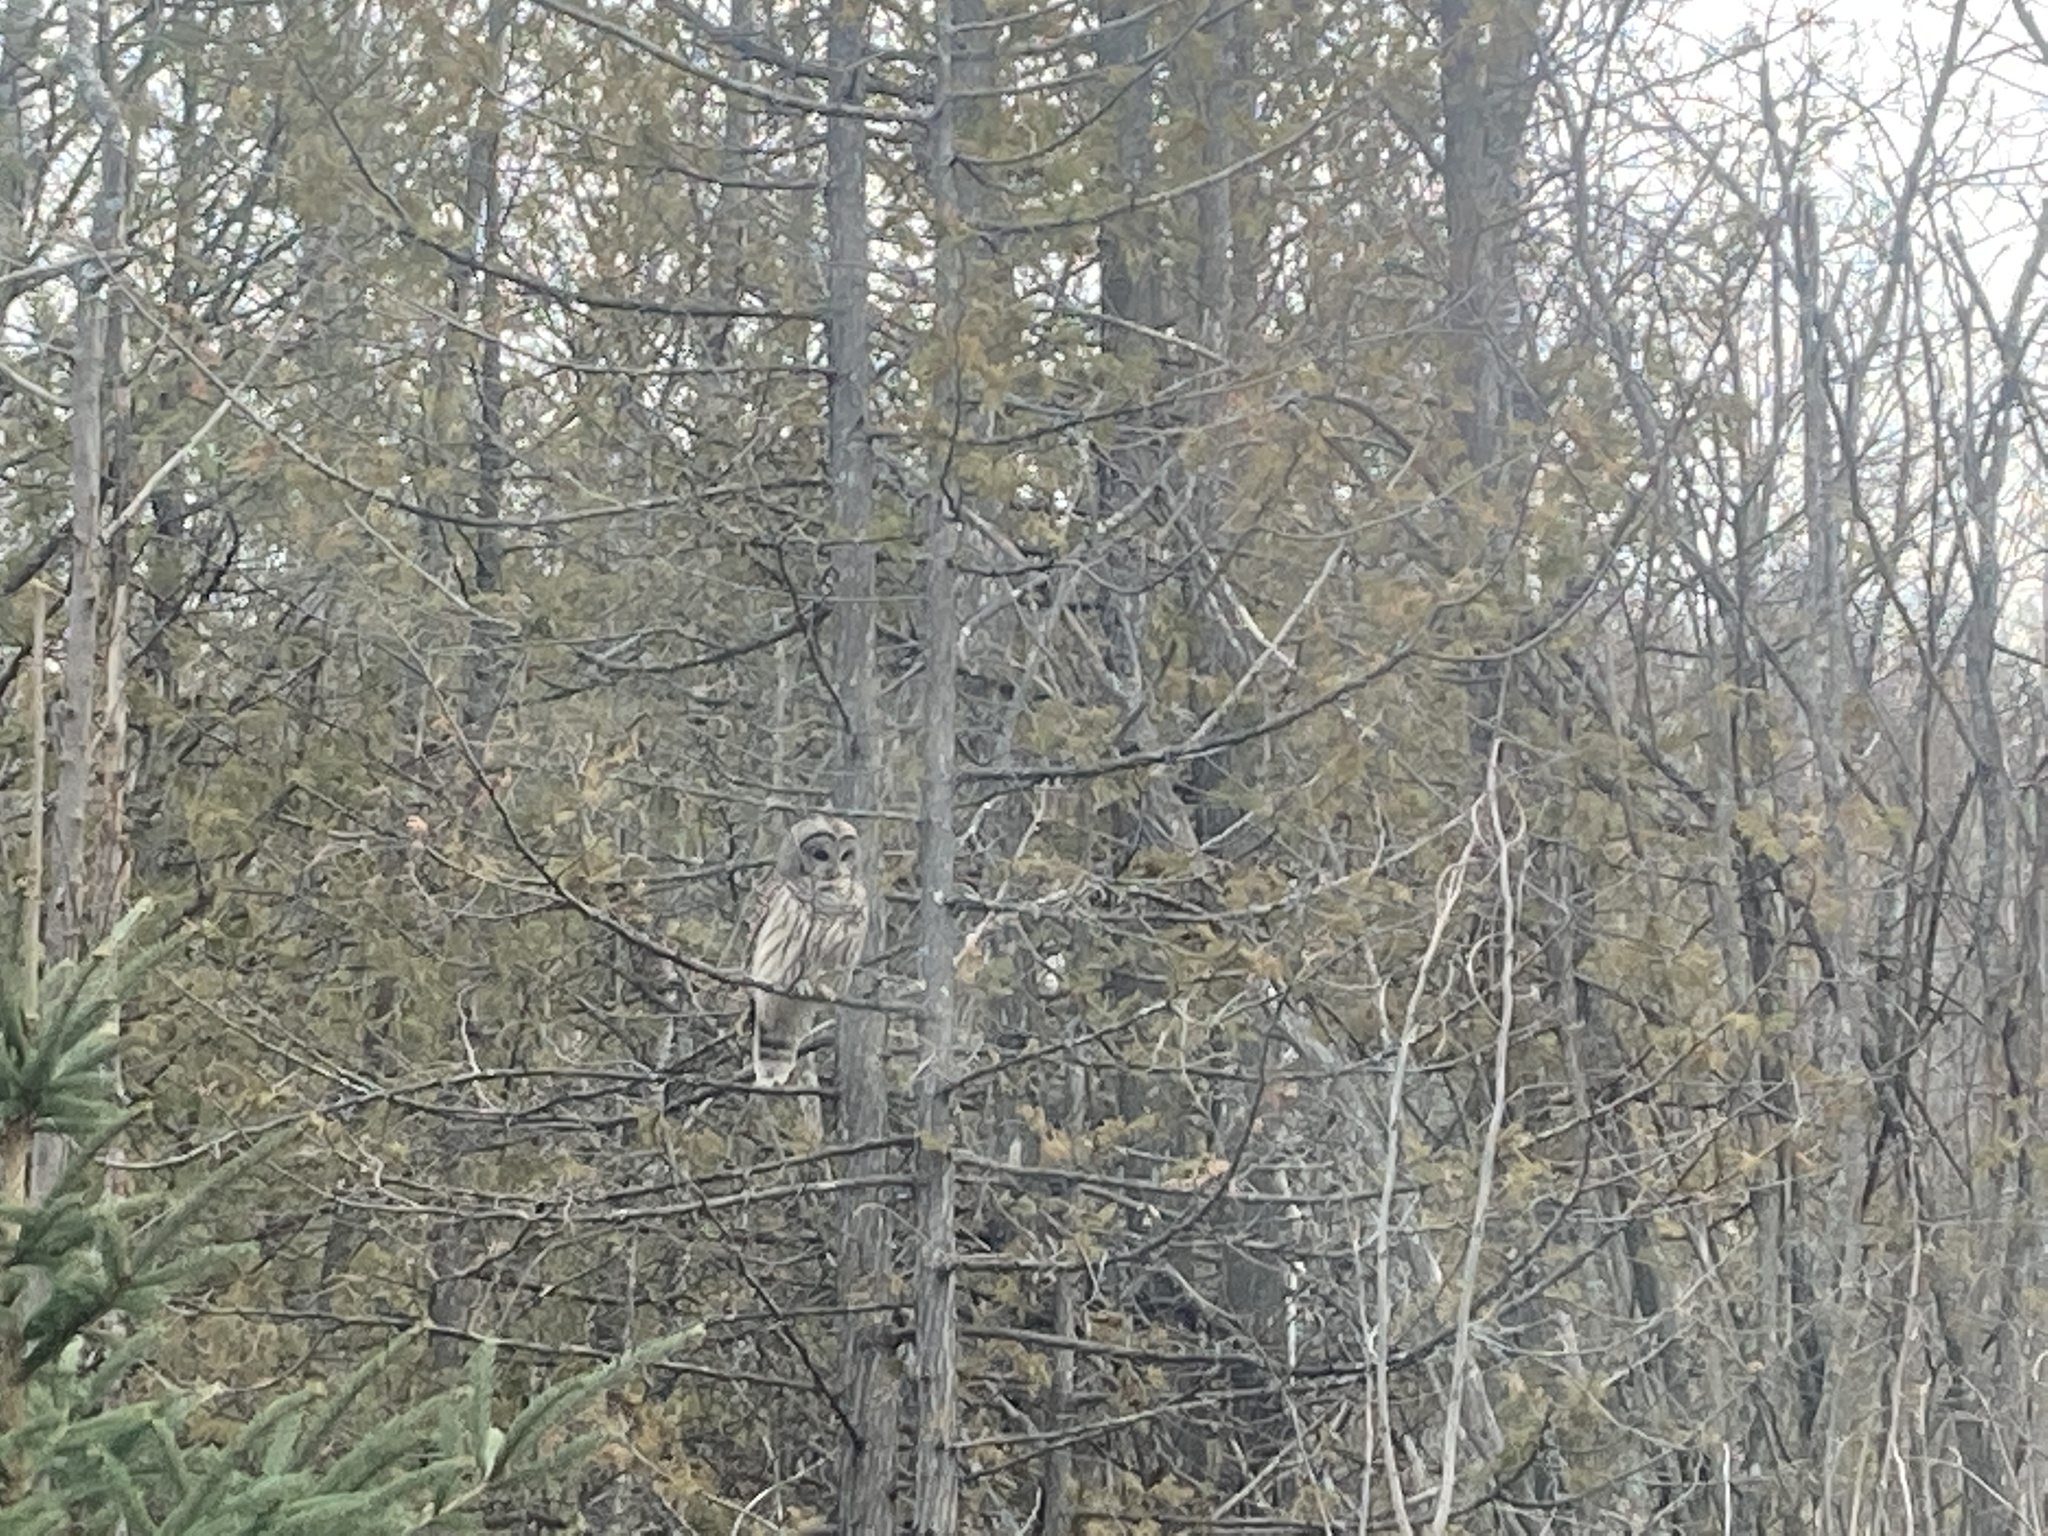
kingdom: Animalia
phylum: Chordata
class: Aves
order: Strigiformes
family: Strigidae
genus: Strix
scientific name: Strix varia
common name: Barred owl
